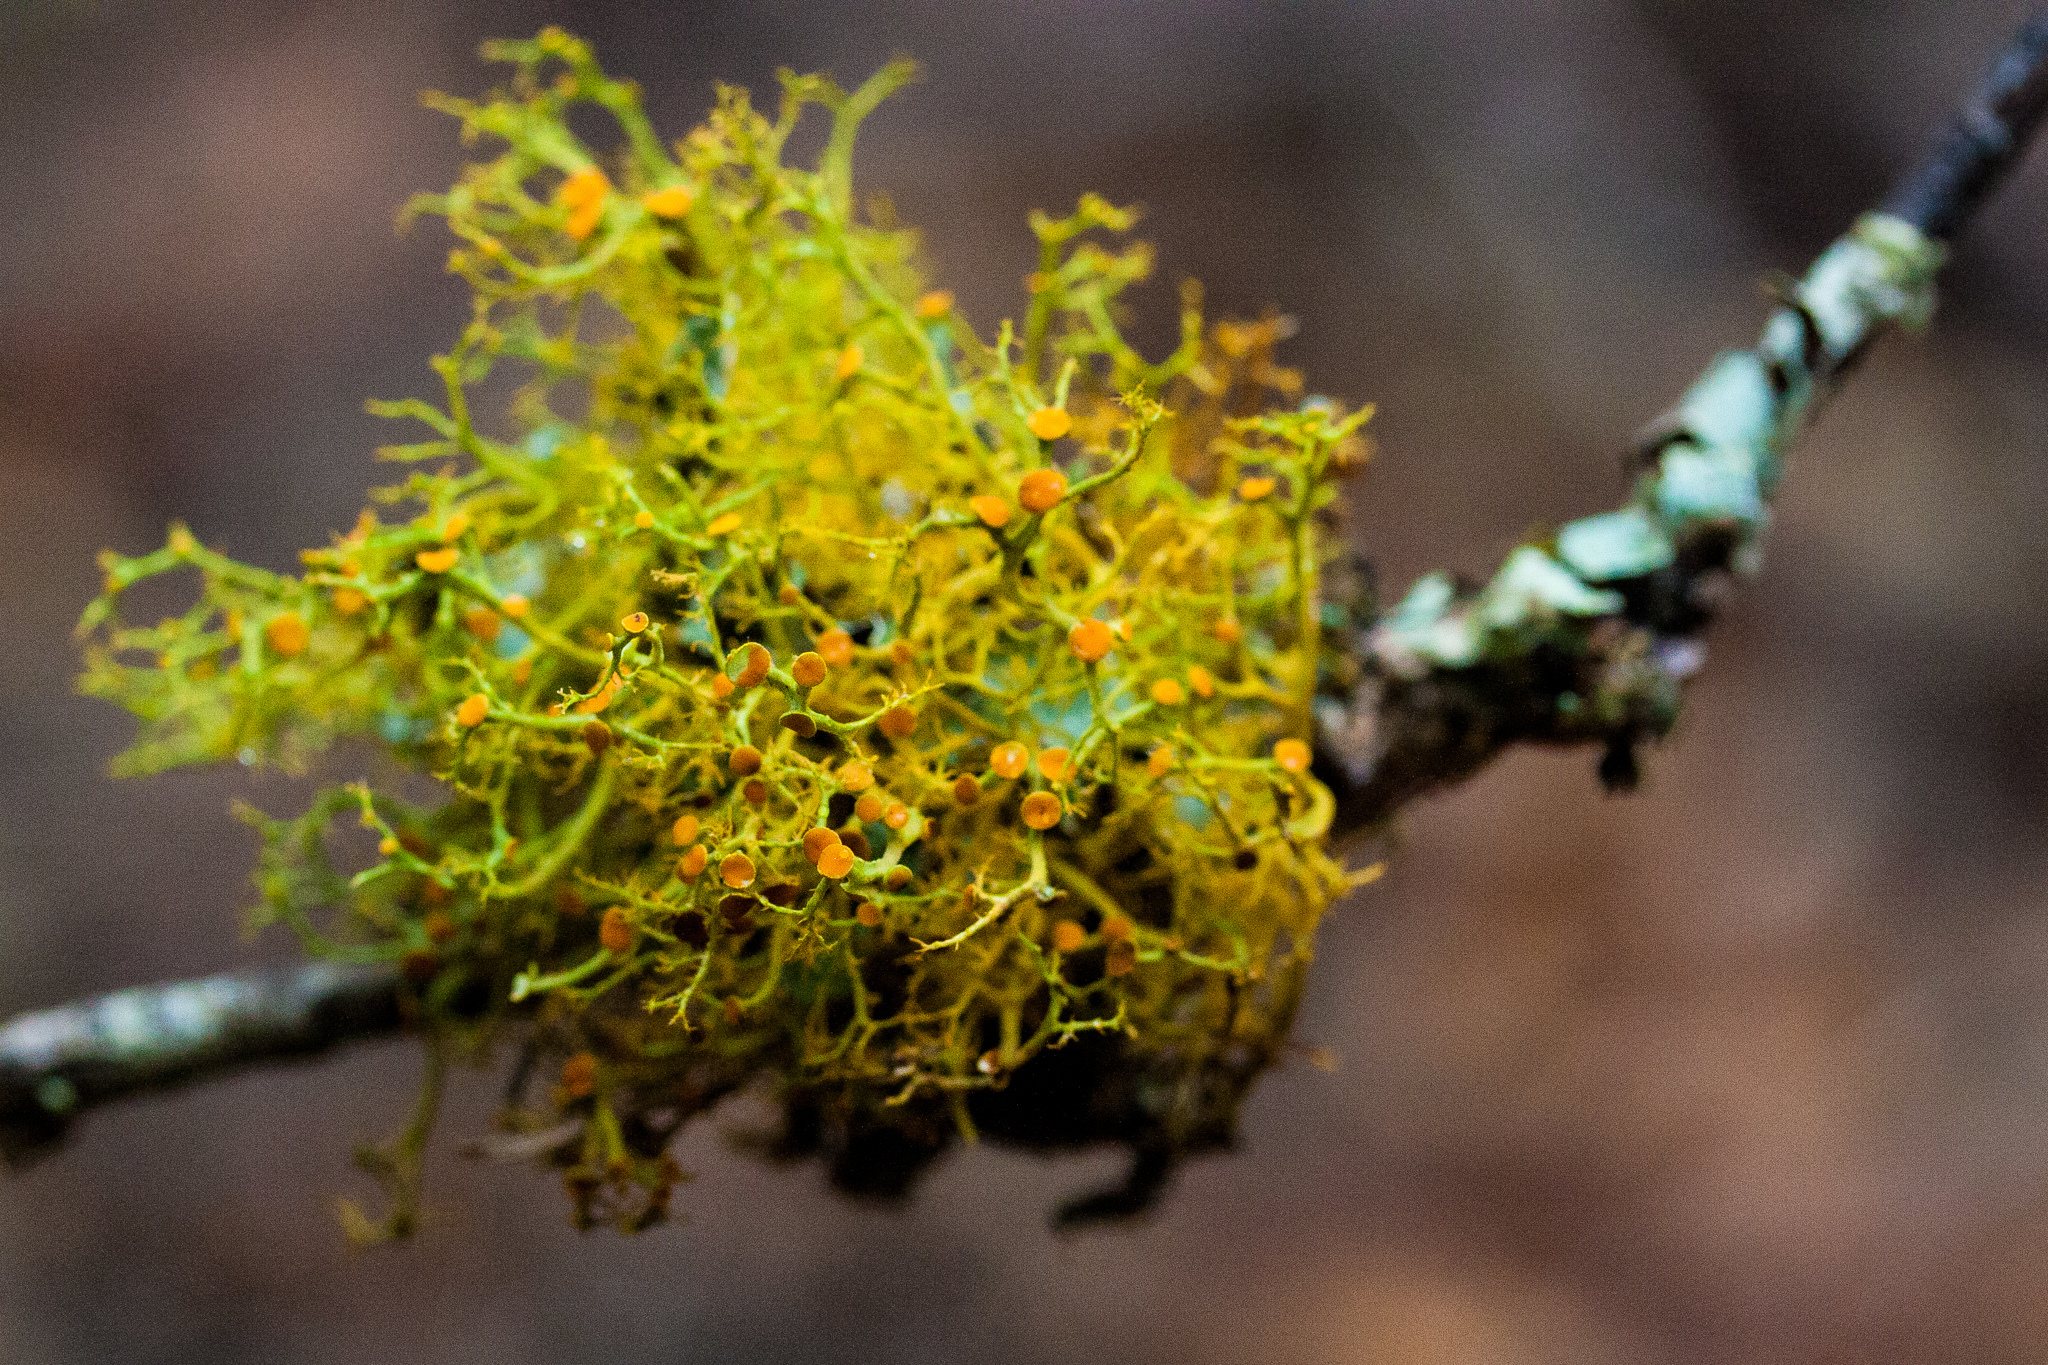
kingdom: Fungi
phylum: Ascomycota
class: Lecanoromycetes
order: Teloschistales
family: Teloschistaceae
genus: Teloschistes
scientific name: Teloschistes flavicans
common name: Golden hair-lichen
